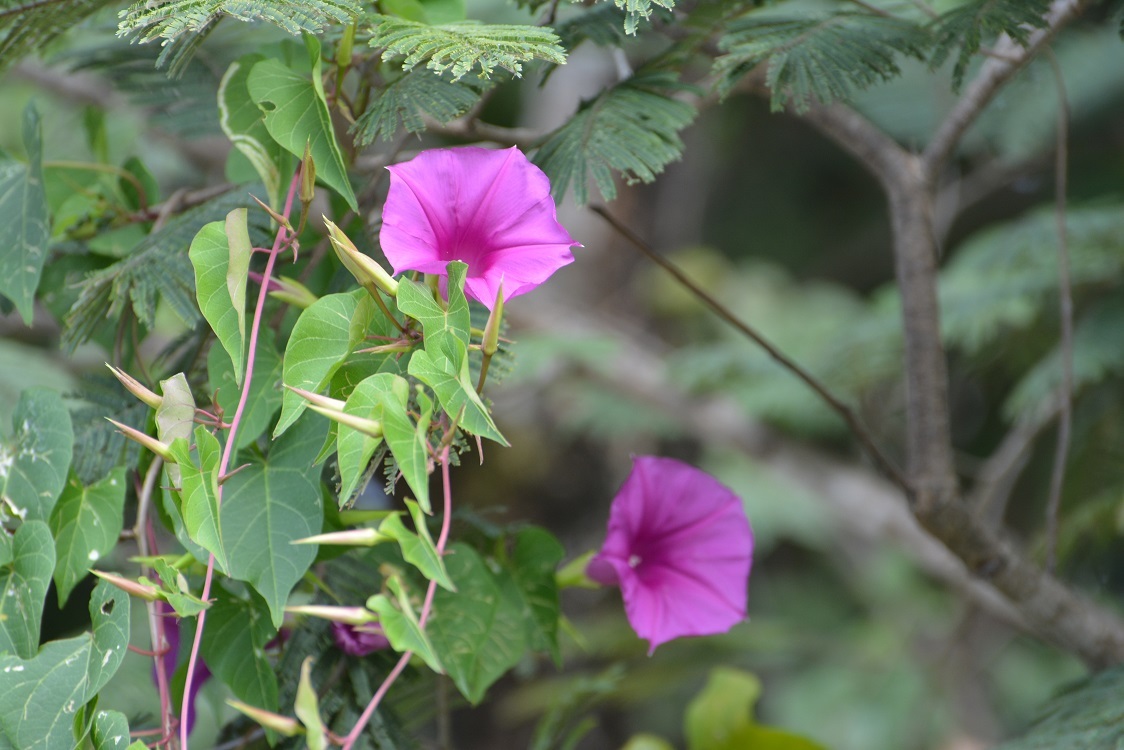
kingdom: Plantae
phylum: Tracheophyta
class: Magnoliopsida
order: Solanales
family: Convolvulaceae
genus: Ipomoea
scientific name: Ipomoea bernoulliana
